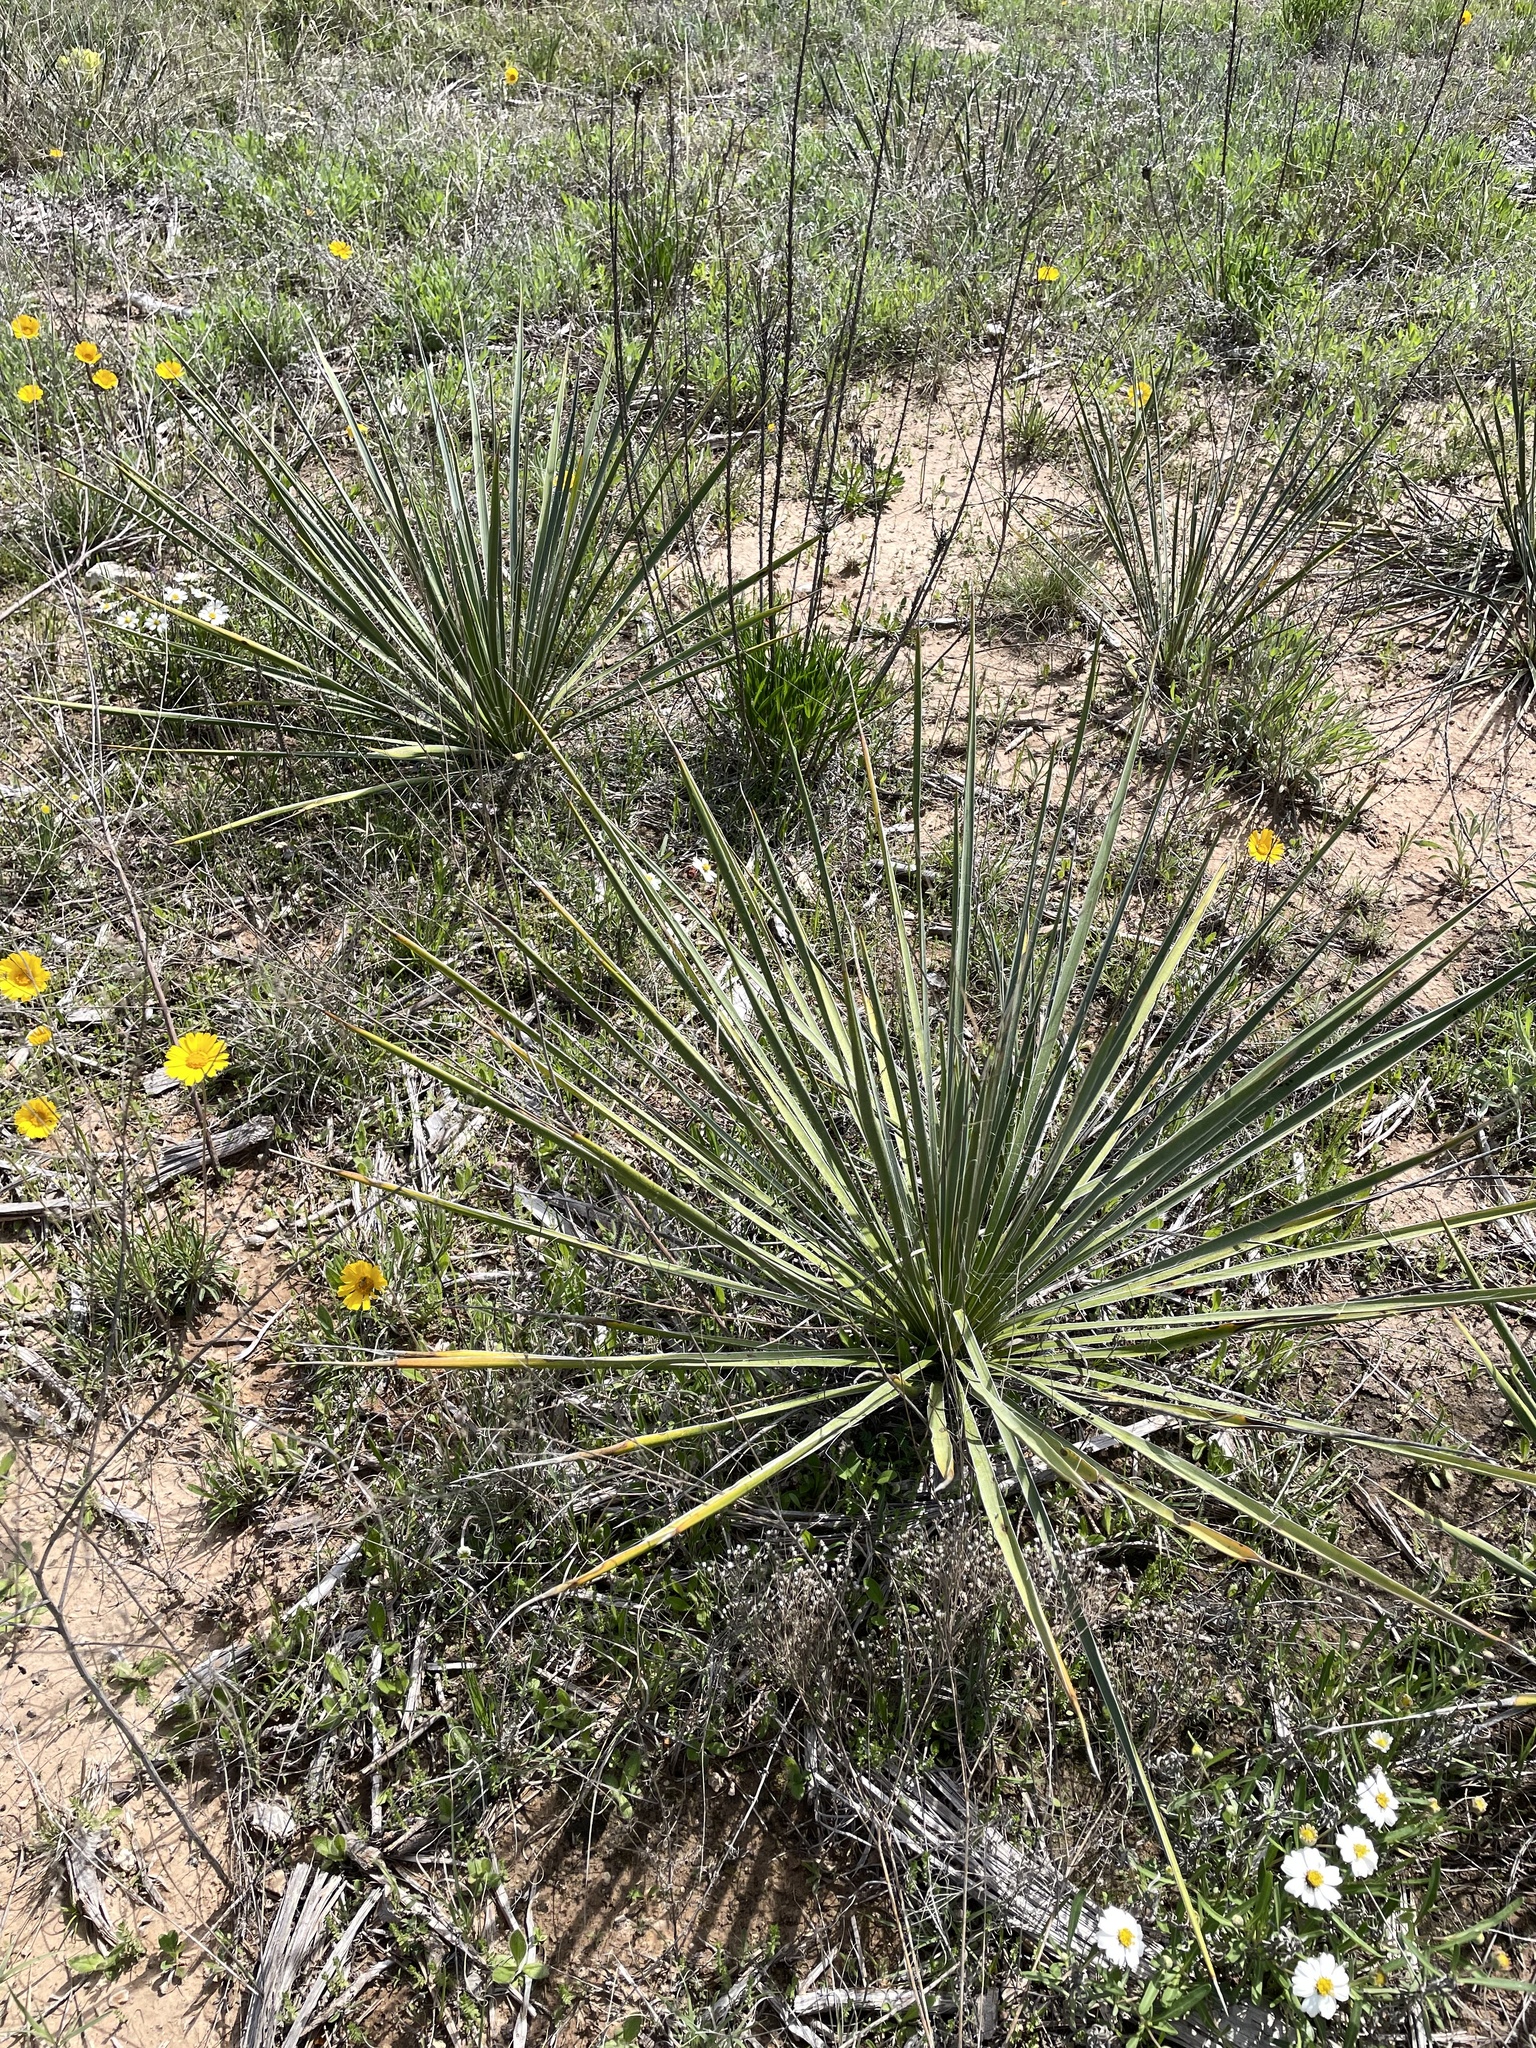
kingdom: Plantae
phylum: Tracheophyta
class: Liliopsida
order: Asparagales
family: Asparagaceae
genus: Yucca
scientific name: Yucca constricta
